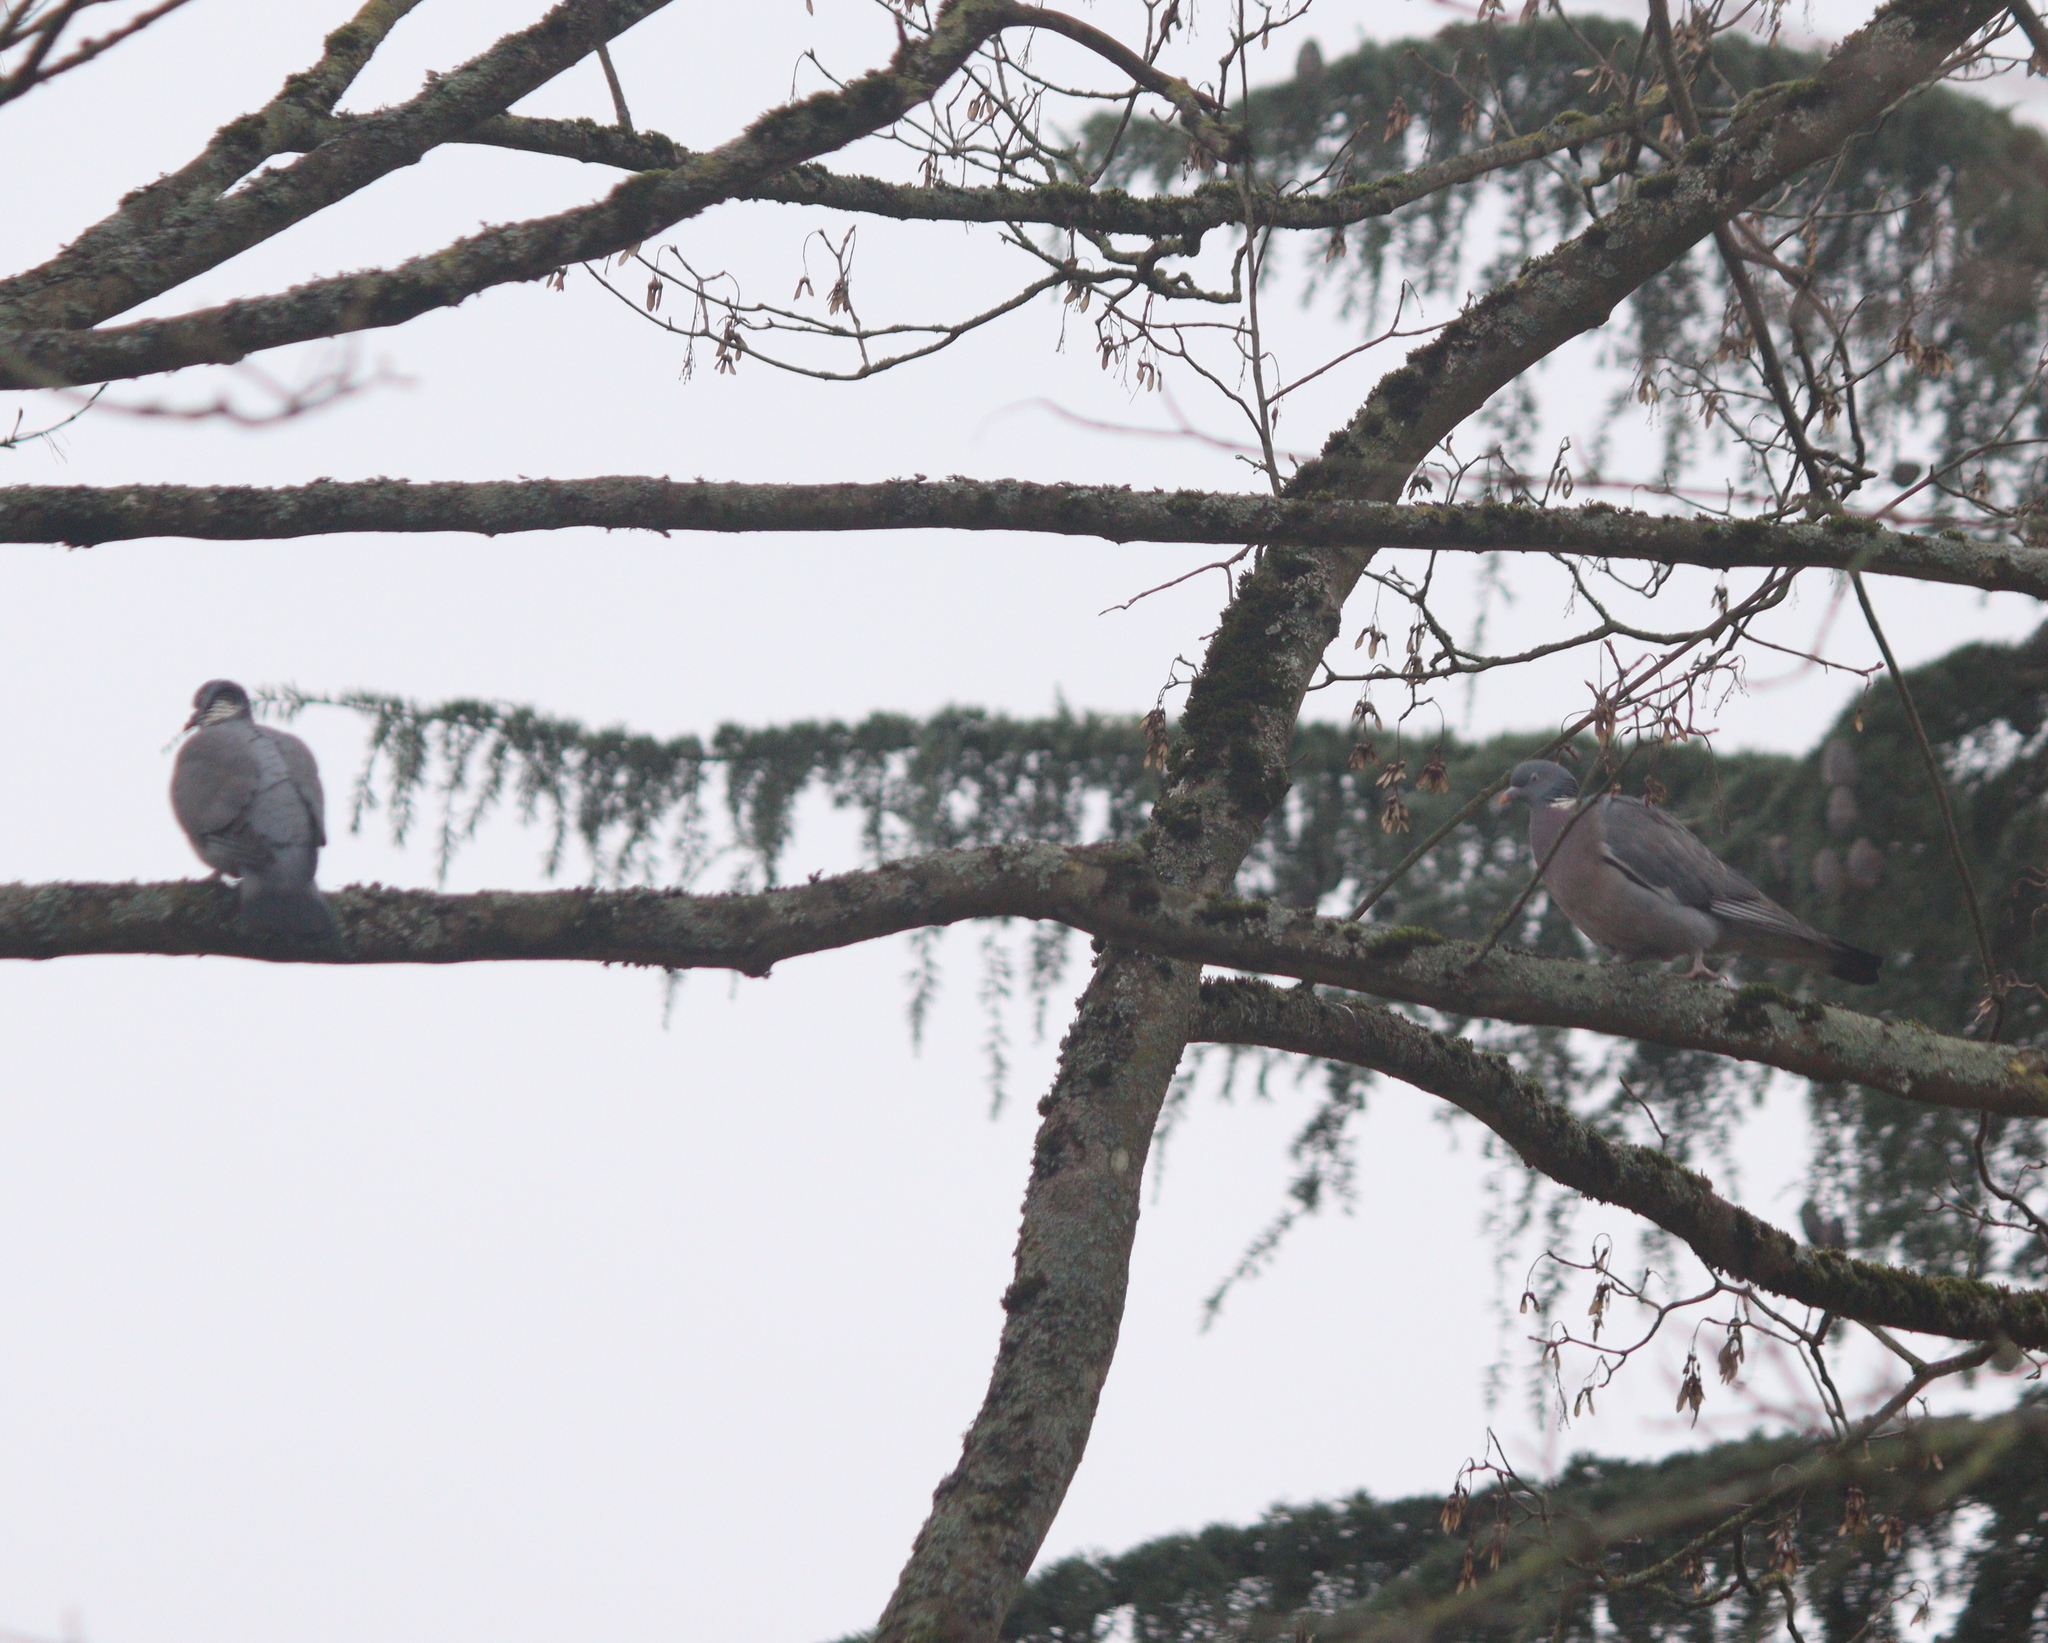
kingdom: Animalia
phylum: Chordata
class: Aves
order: Columbiformes
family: Columbidae
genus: Columba
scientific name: Columba palumbus
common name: Common wood pigeon
